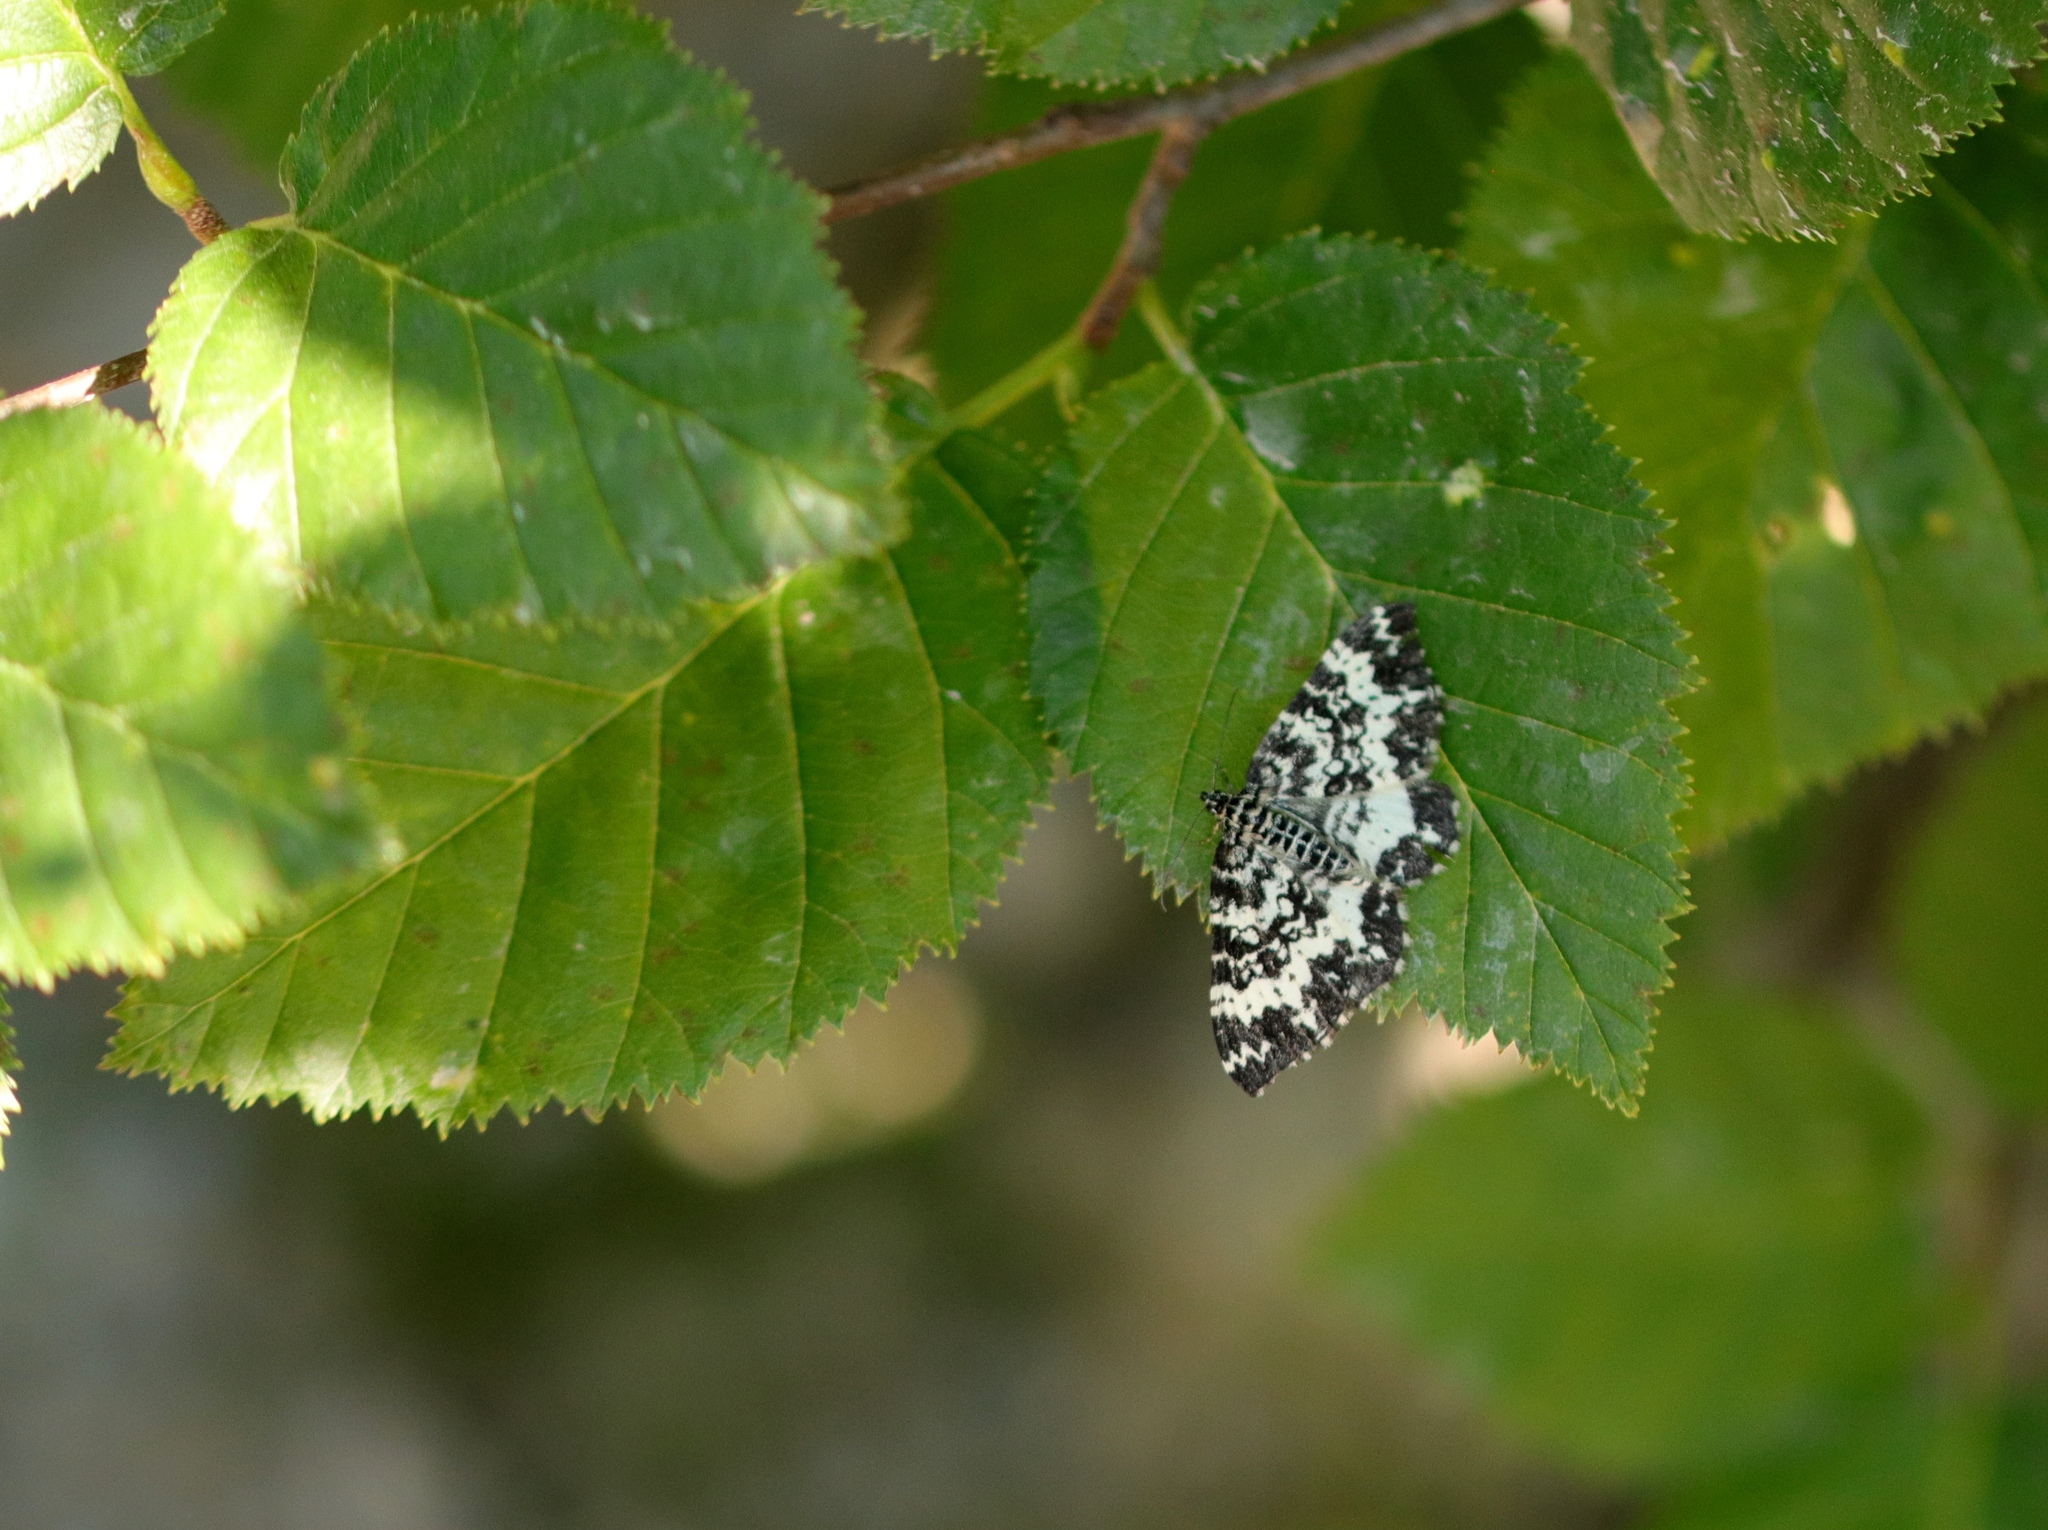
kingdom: Animalia
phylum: Arthropoda
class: Insecta
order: Lepidoptera
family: Geometridae
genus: Rheumaptera
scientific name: Rheumaptera hastata
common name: Argent & sable
